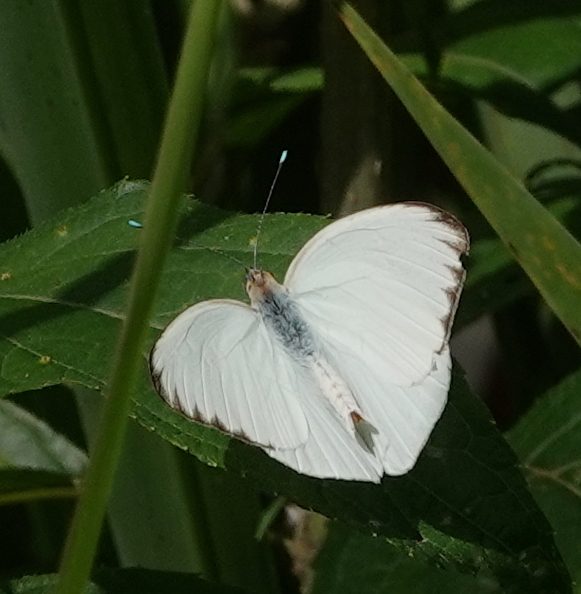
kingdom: Animalia
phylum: Arthropoda
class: Insecta
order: Lepidoptera
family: Pieridae
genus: Ascia
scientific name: Ascia monuste
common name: Great southern white
